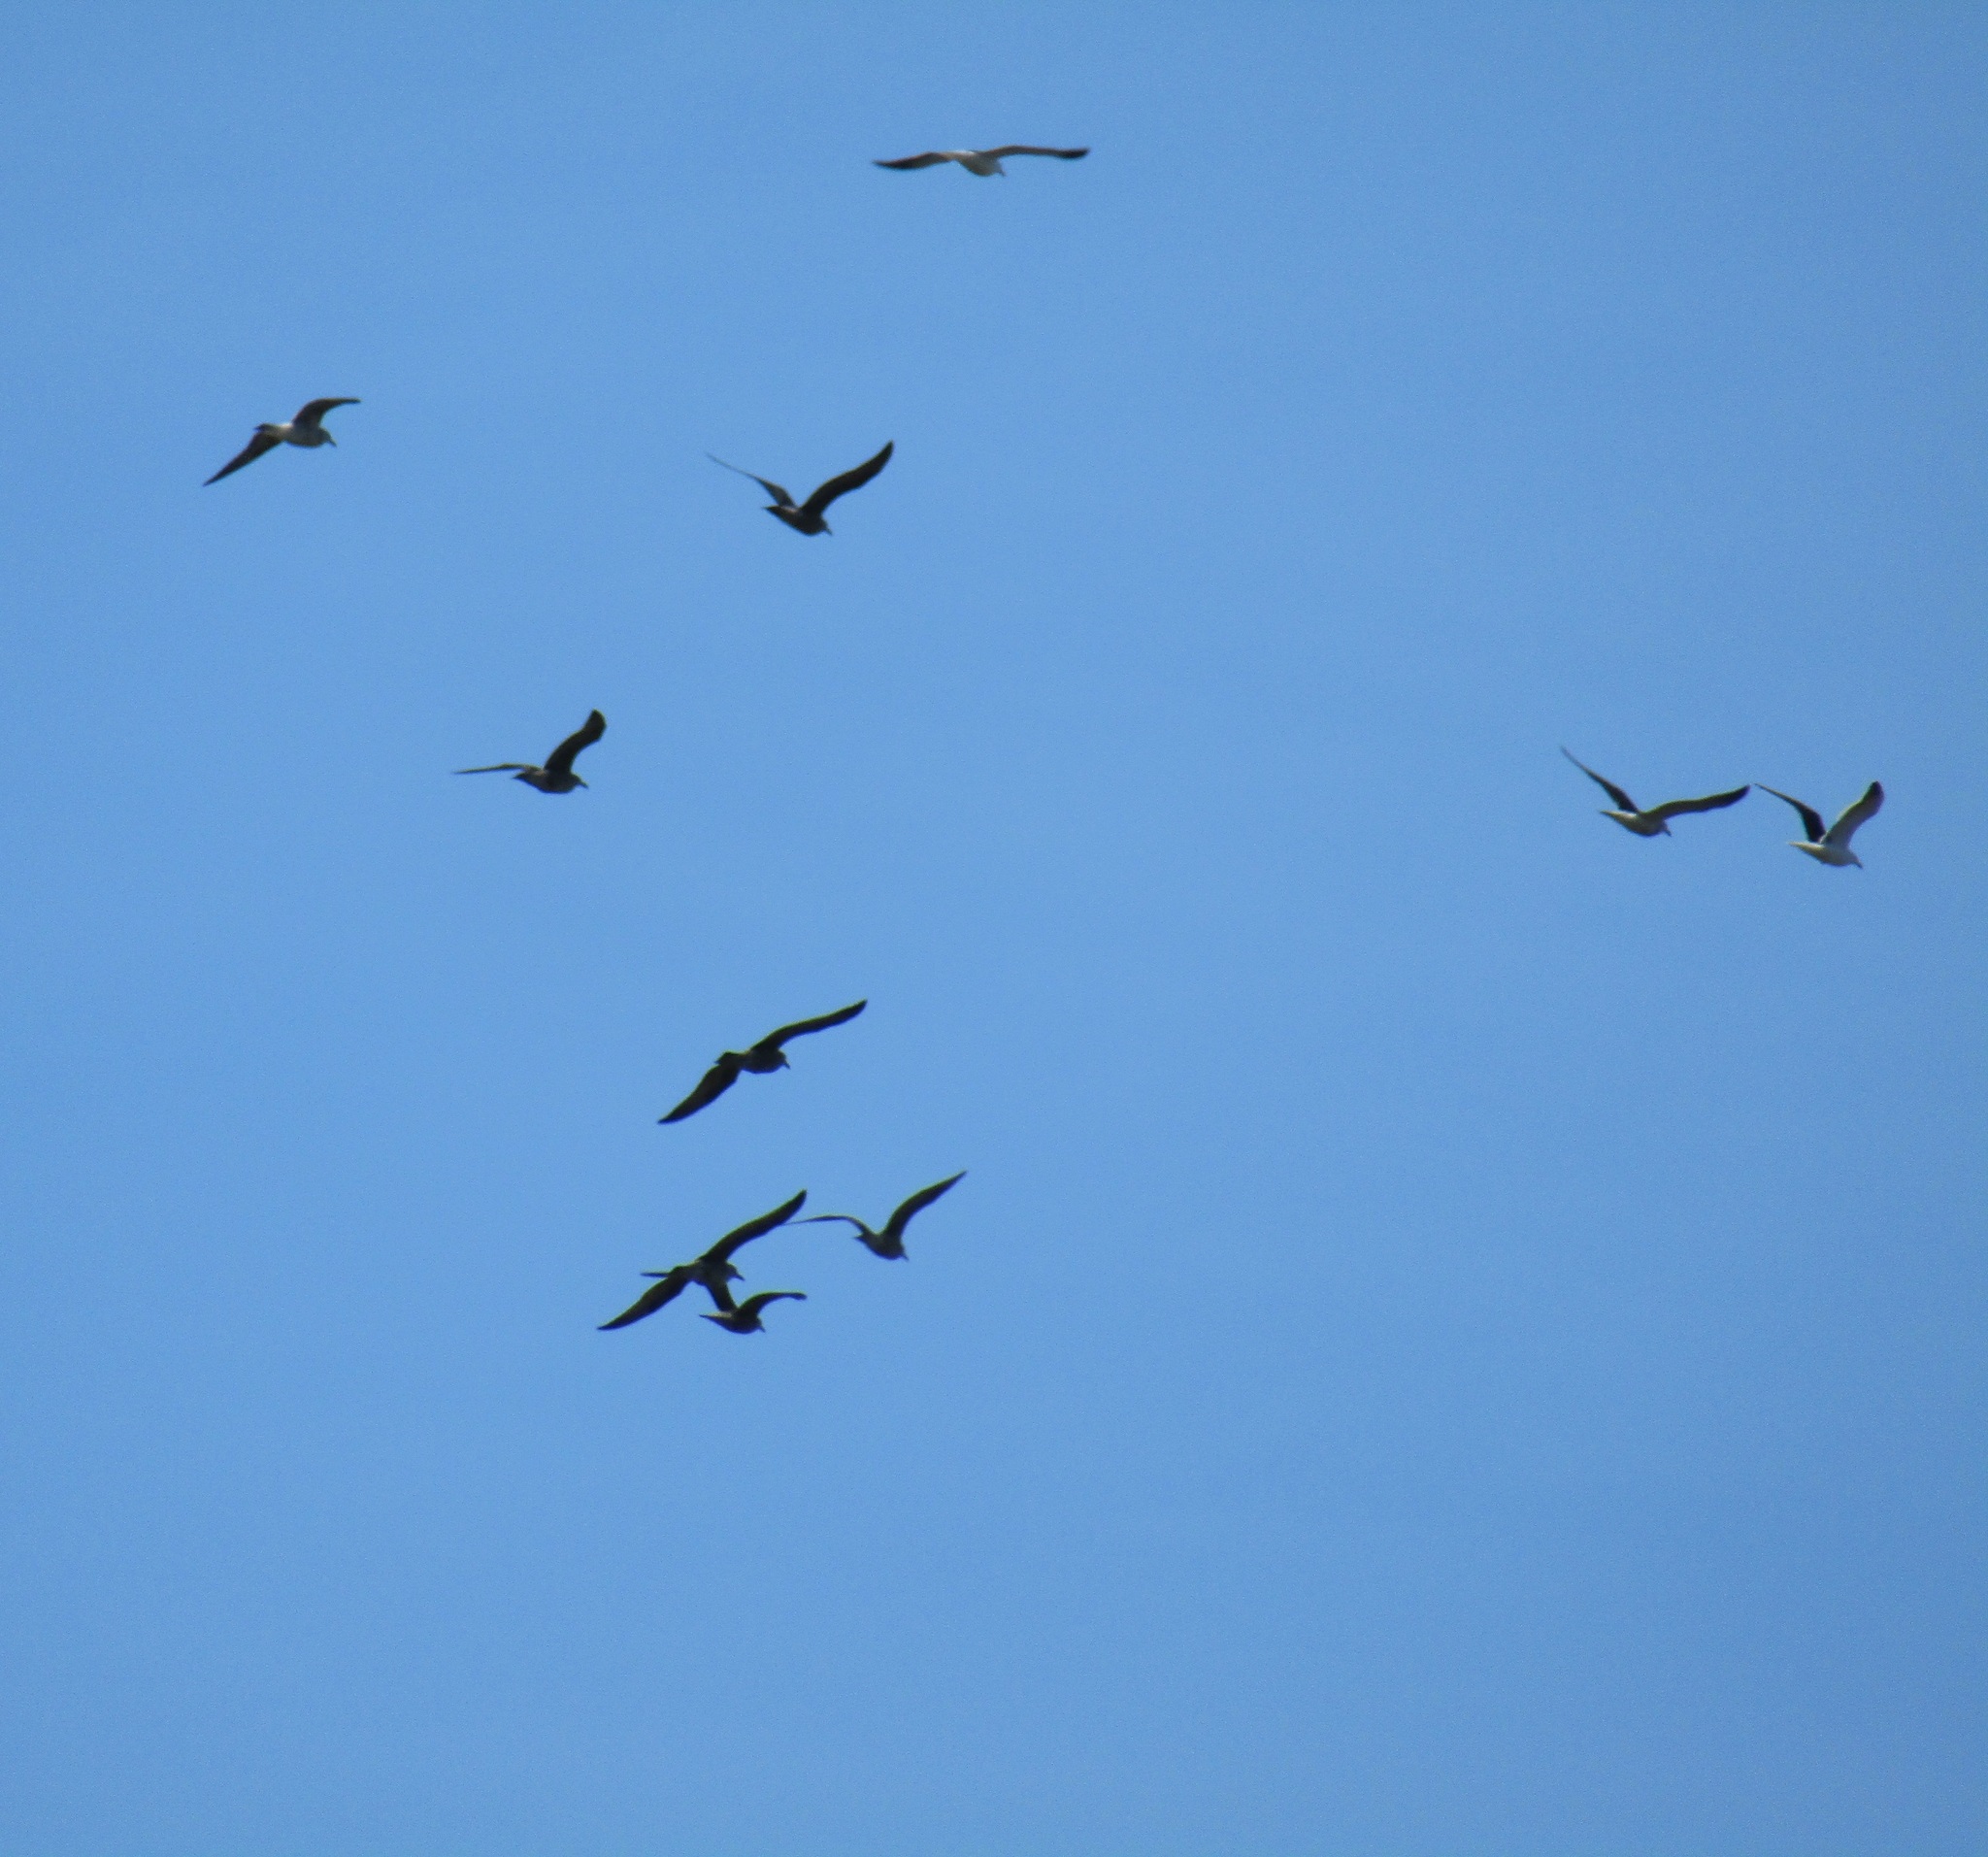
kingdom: Animalia
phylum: Chordata
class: Aves
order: Charadriiformes
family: Laridae
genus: Larus
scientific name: Larus dominicanus
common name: Kelp gull
